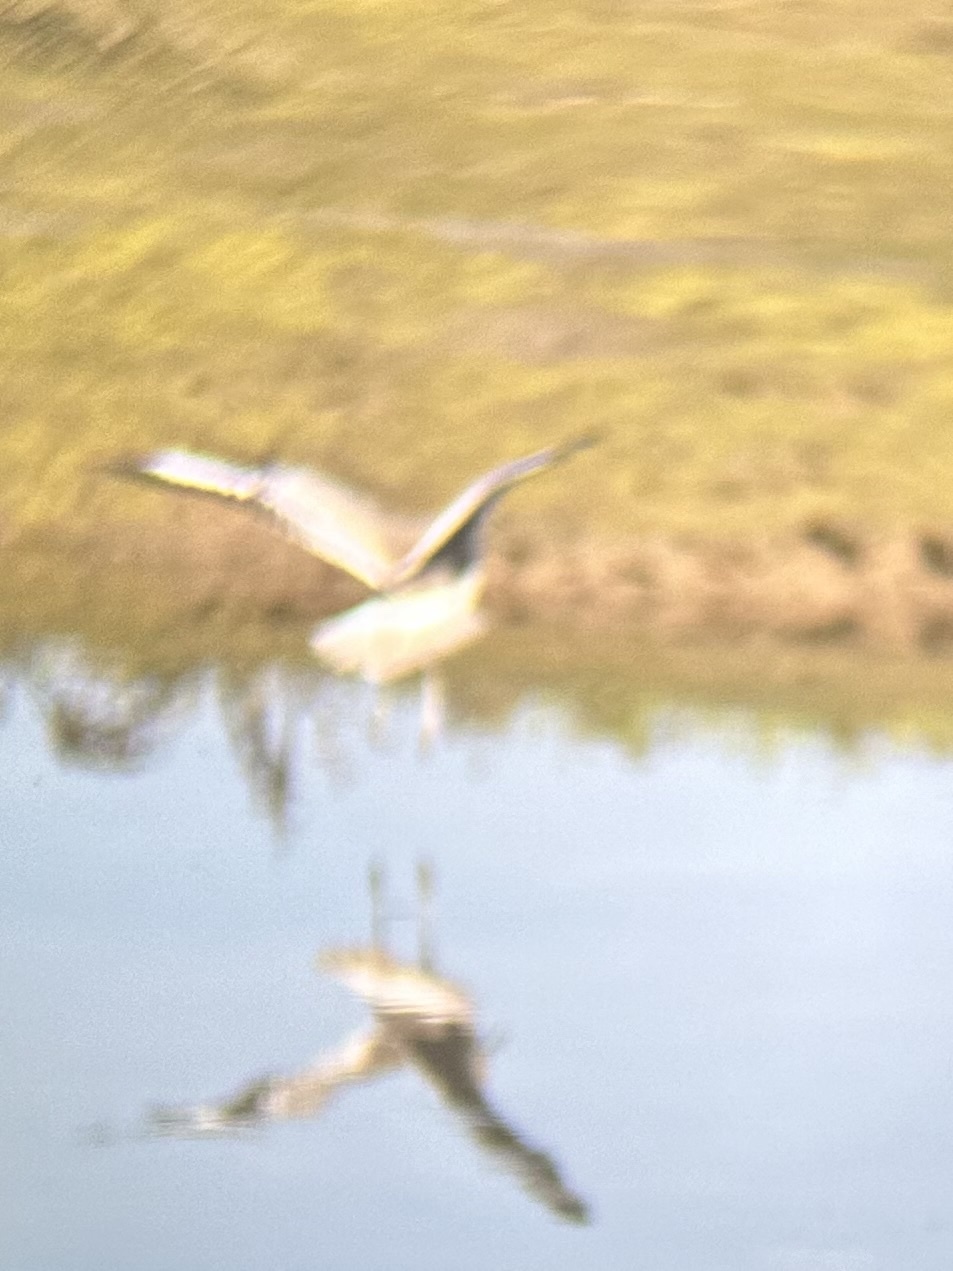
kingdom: Animalia
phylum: Chordata
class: Aves
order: Charadriiformes
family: Scolopacidae
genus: Tringa
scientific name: Tringa semipalmata
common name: Willet
